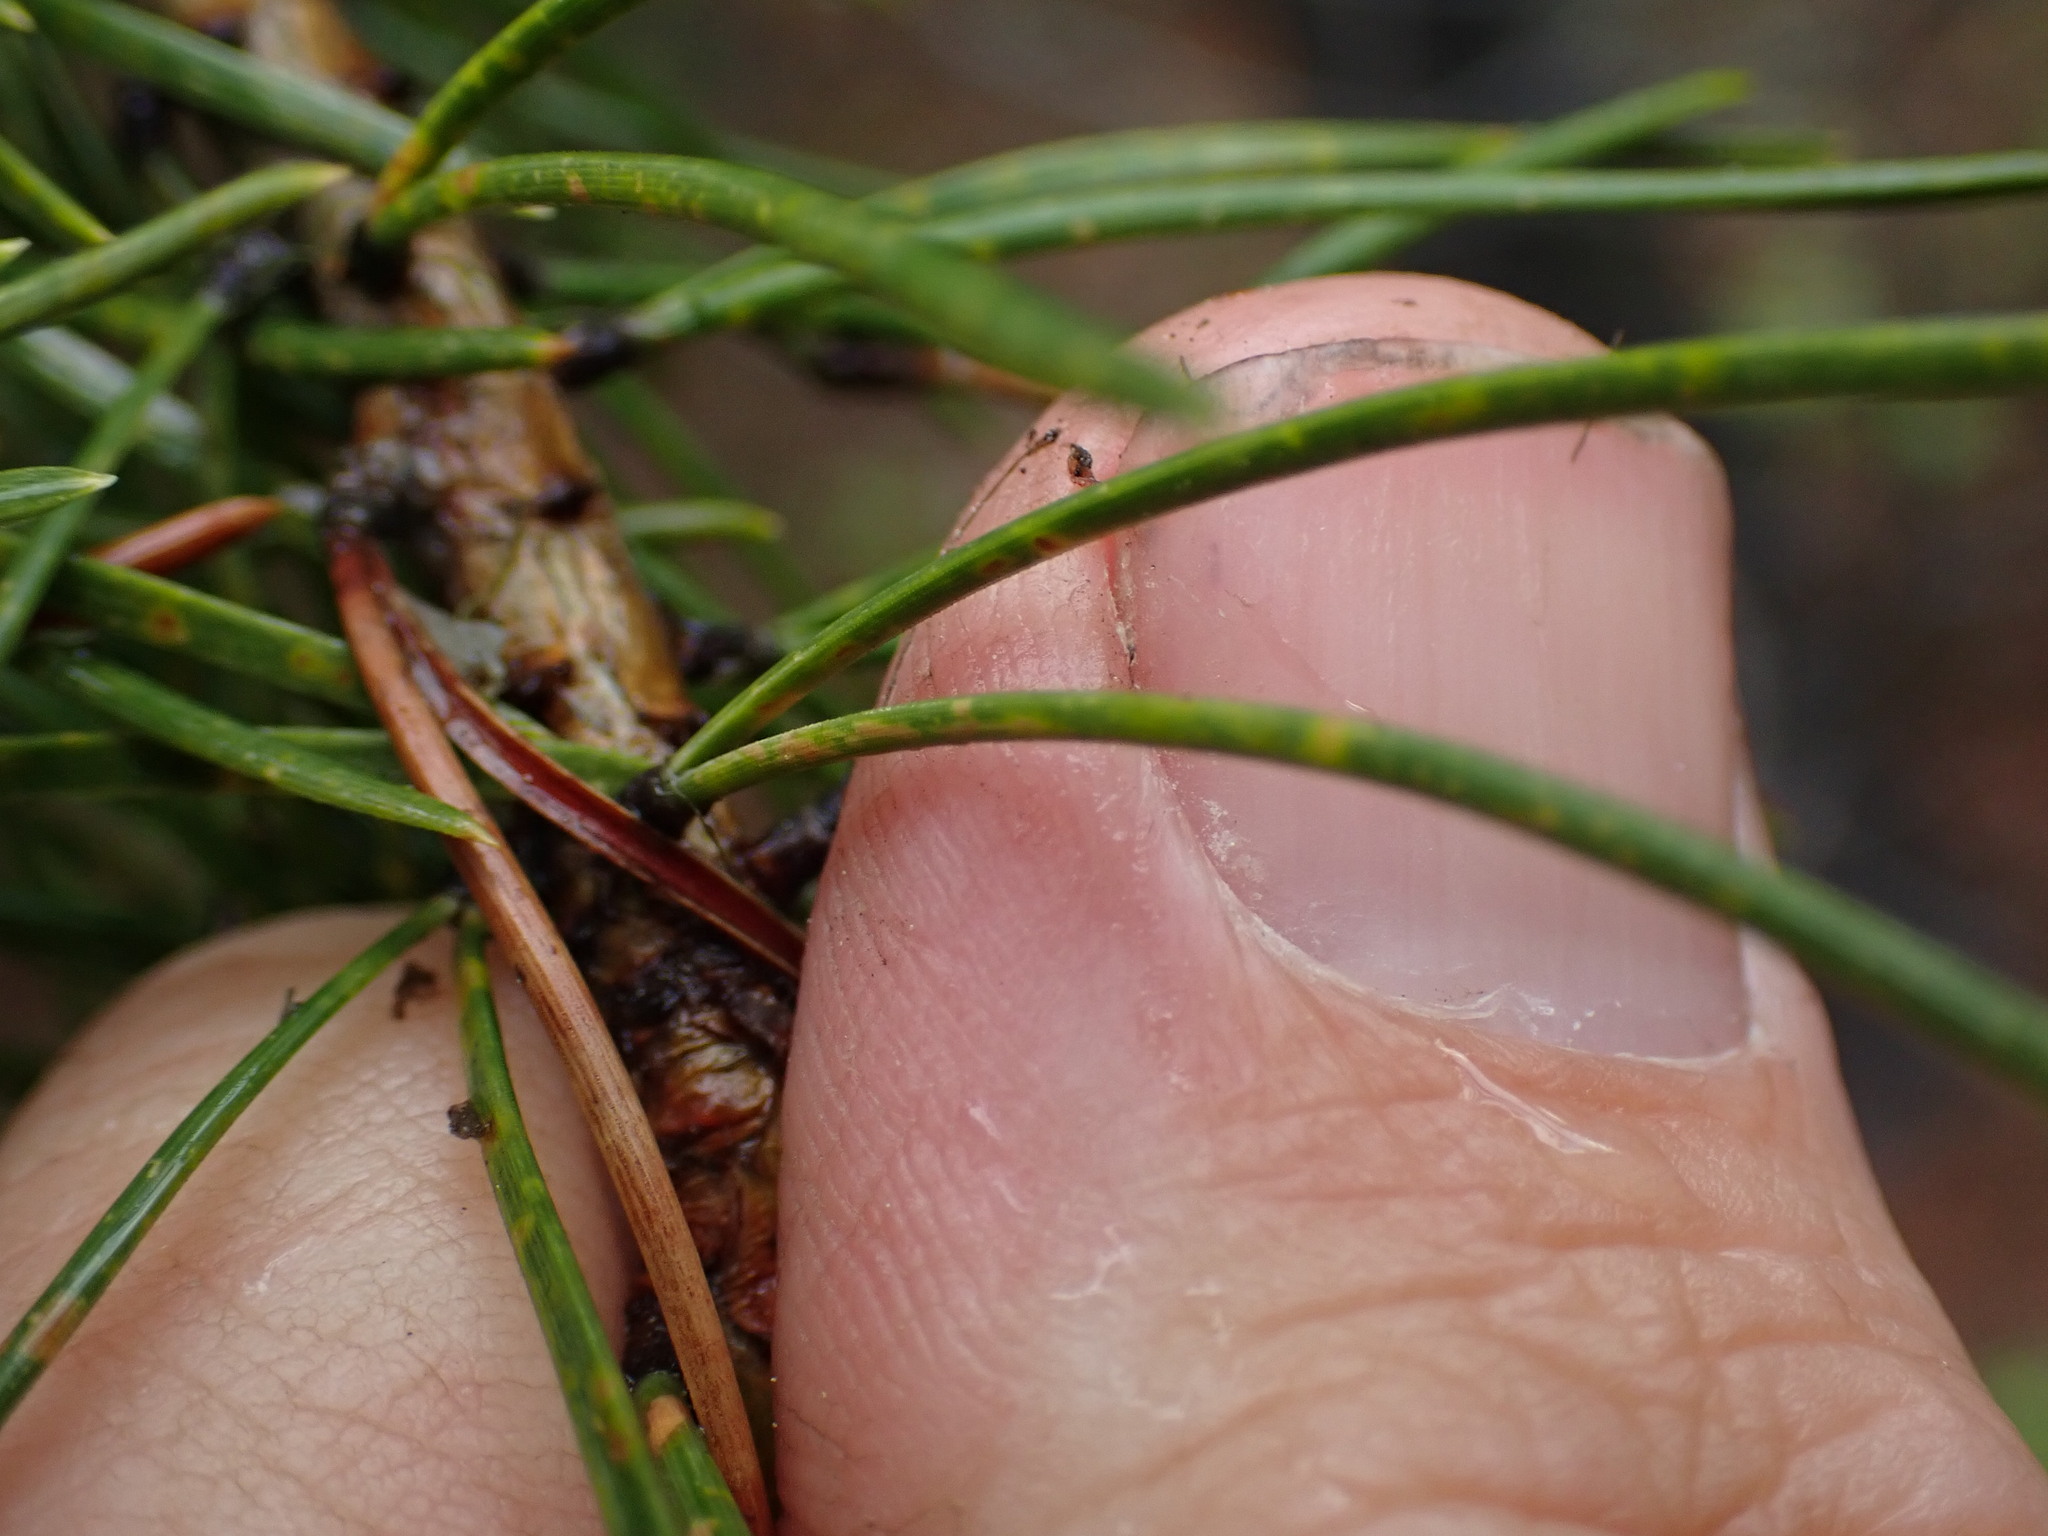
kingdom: Plantae
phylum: Tracheophyta
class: Pinopsida
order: Pinales
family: Pinaceae
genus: Pinus
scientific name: Pinus contorta
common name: Lodgepole pine
